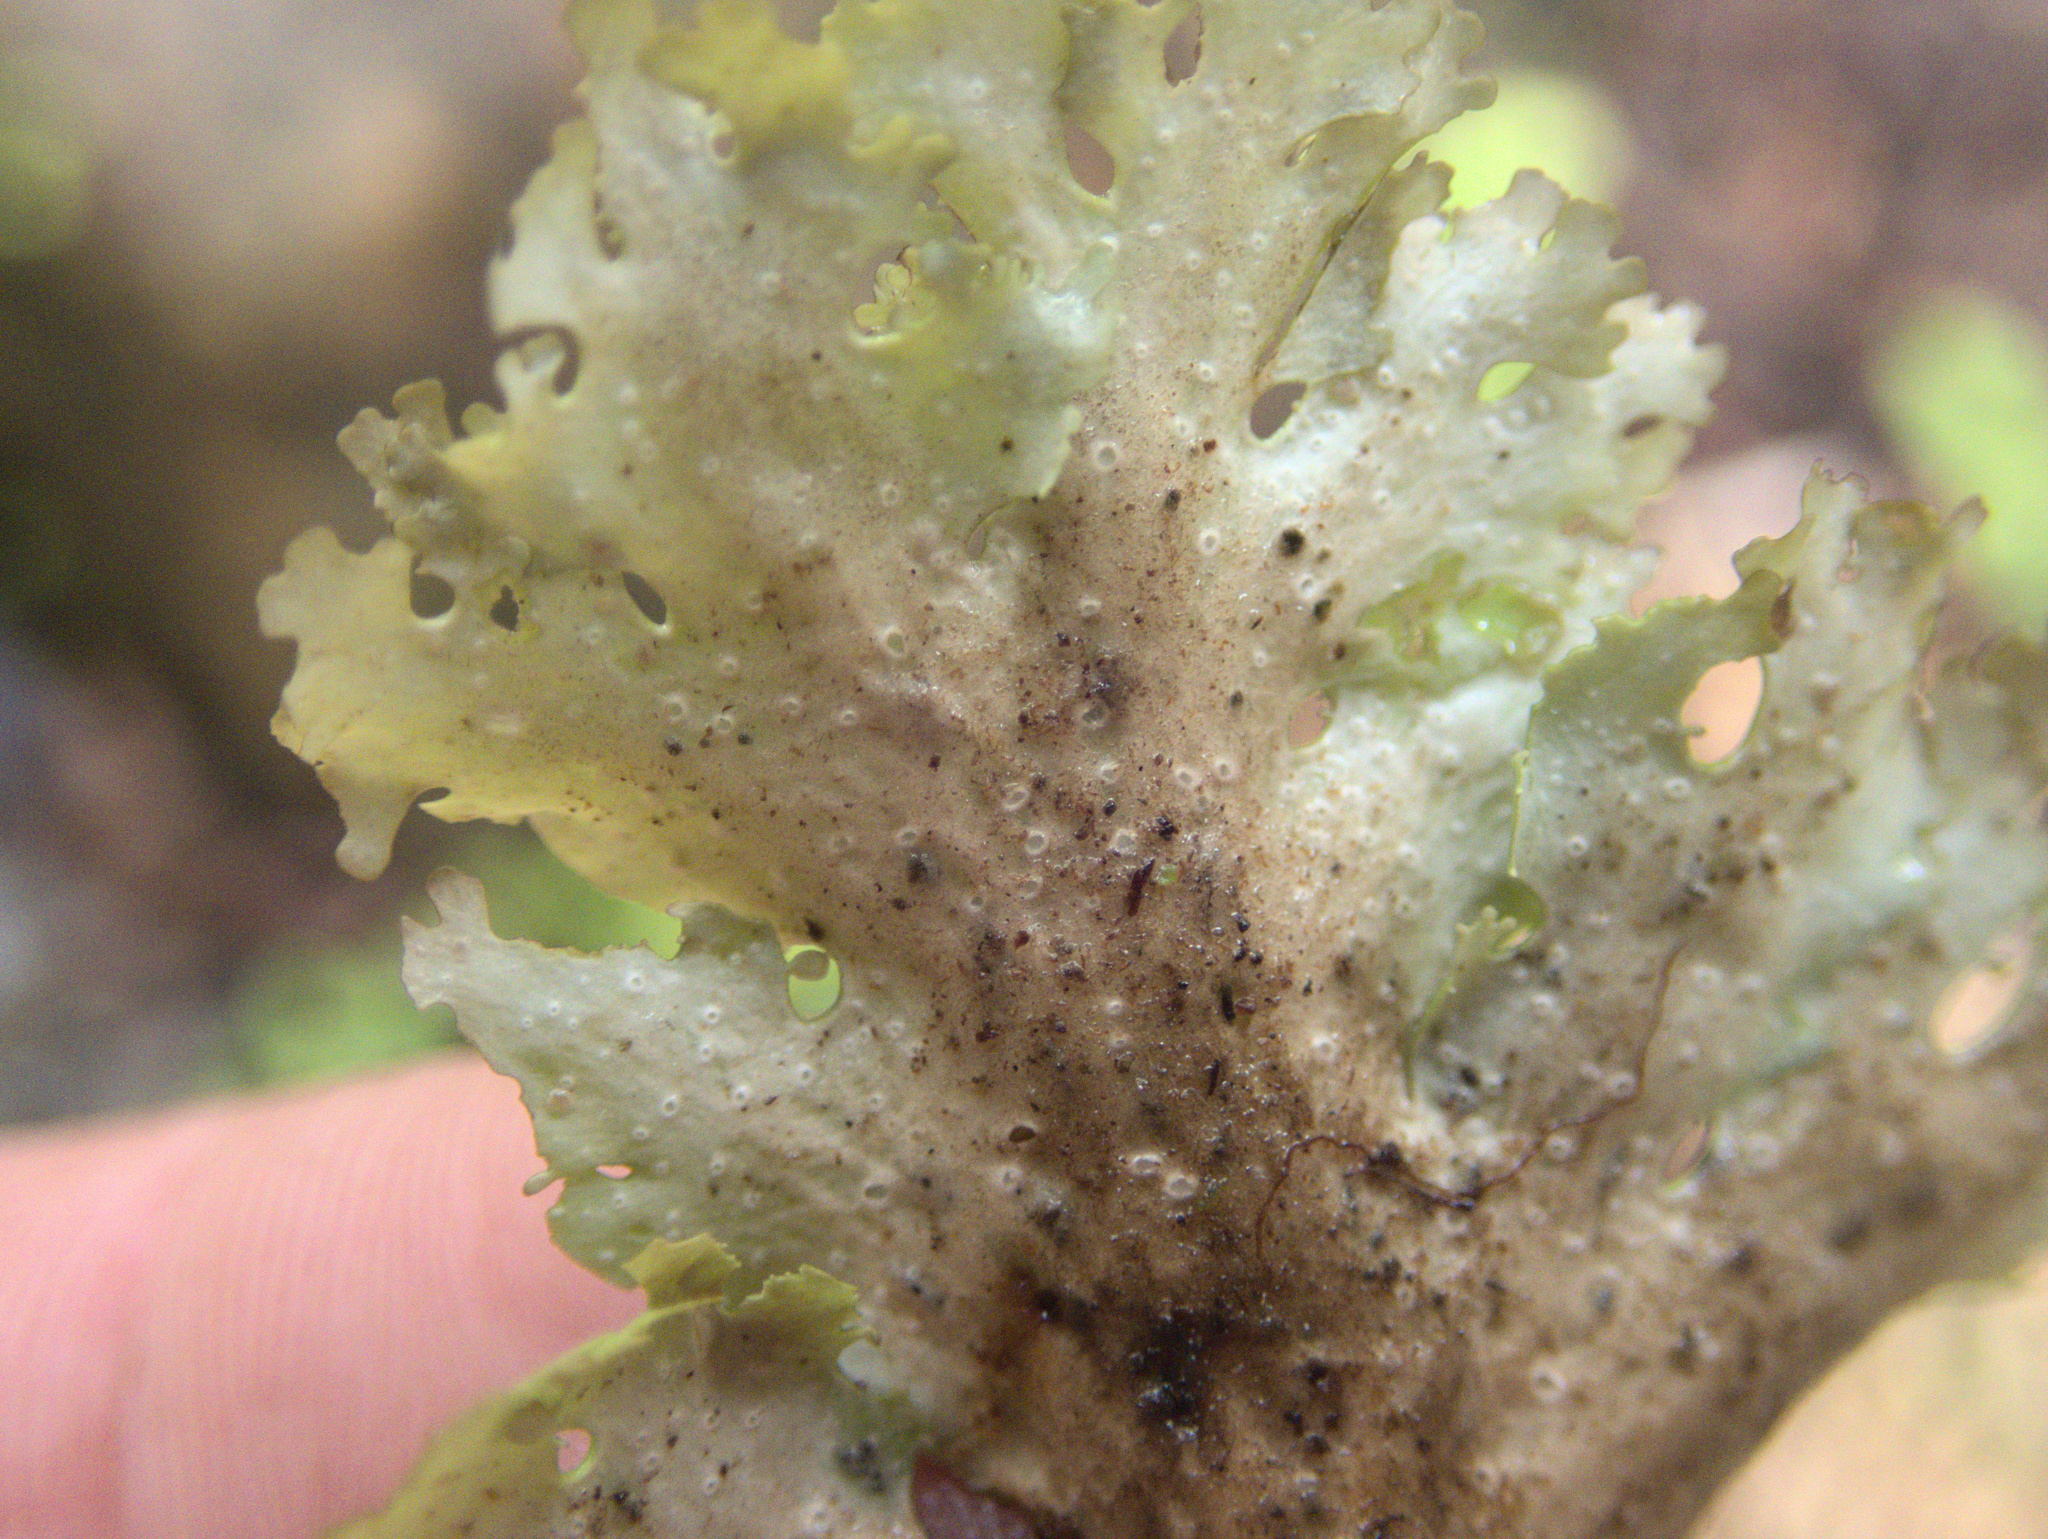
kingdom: Fungi
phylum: Ascomycota
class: Lecanoromycetes
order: Peltigerales
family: Lobariaceae
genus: Sticta
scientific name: Sticta filix
